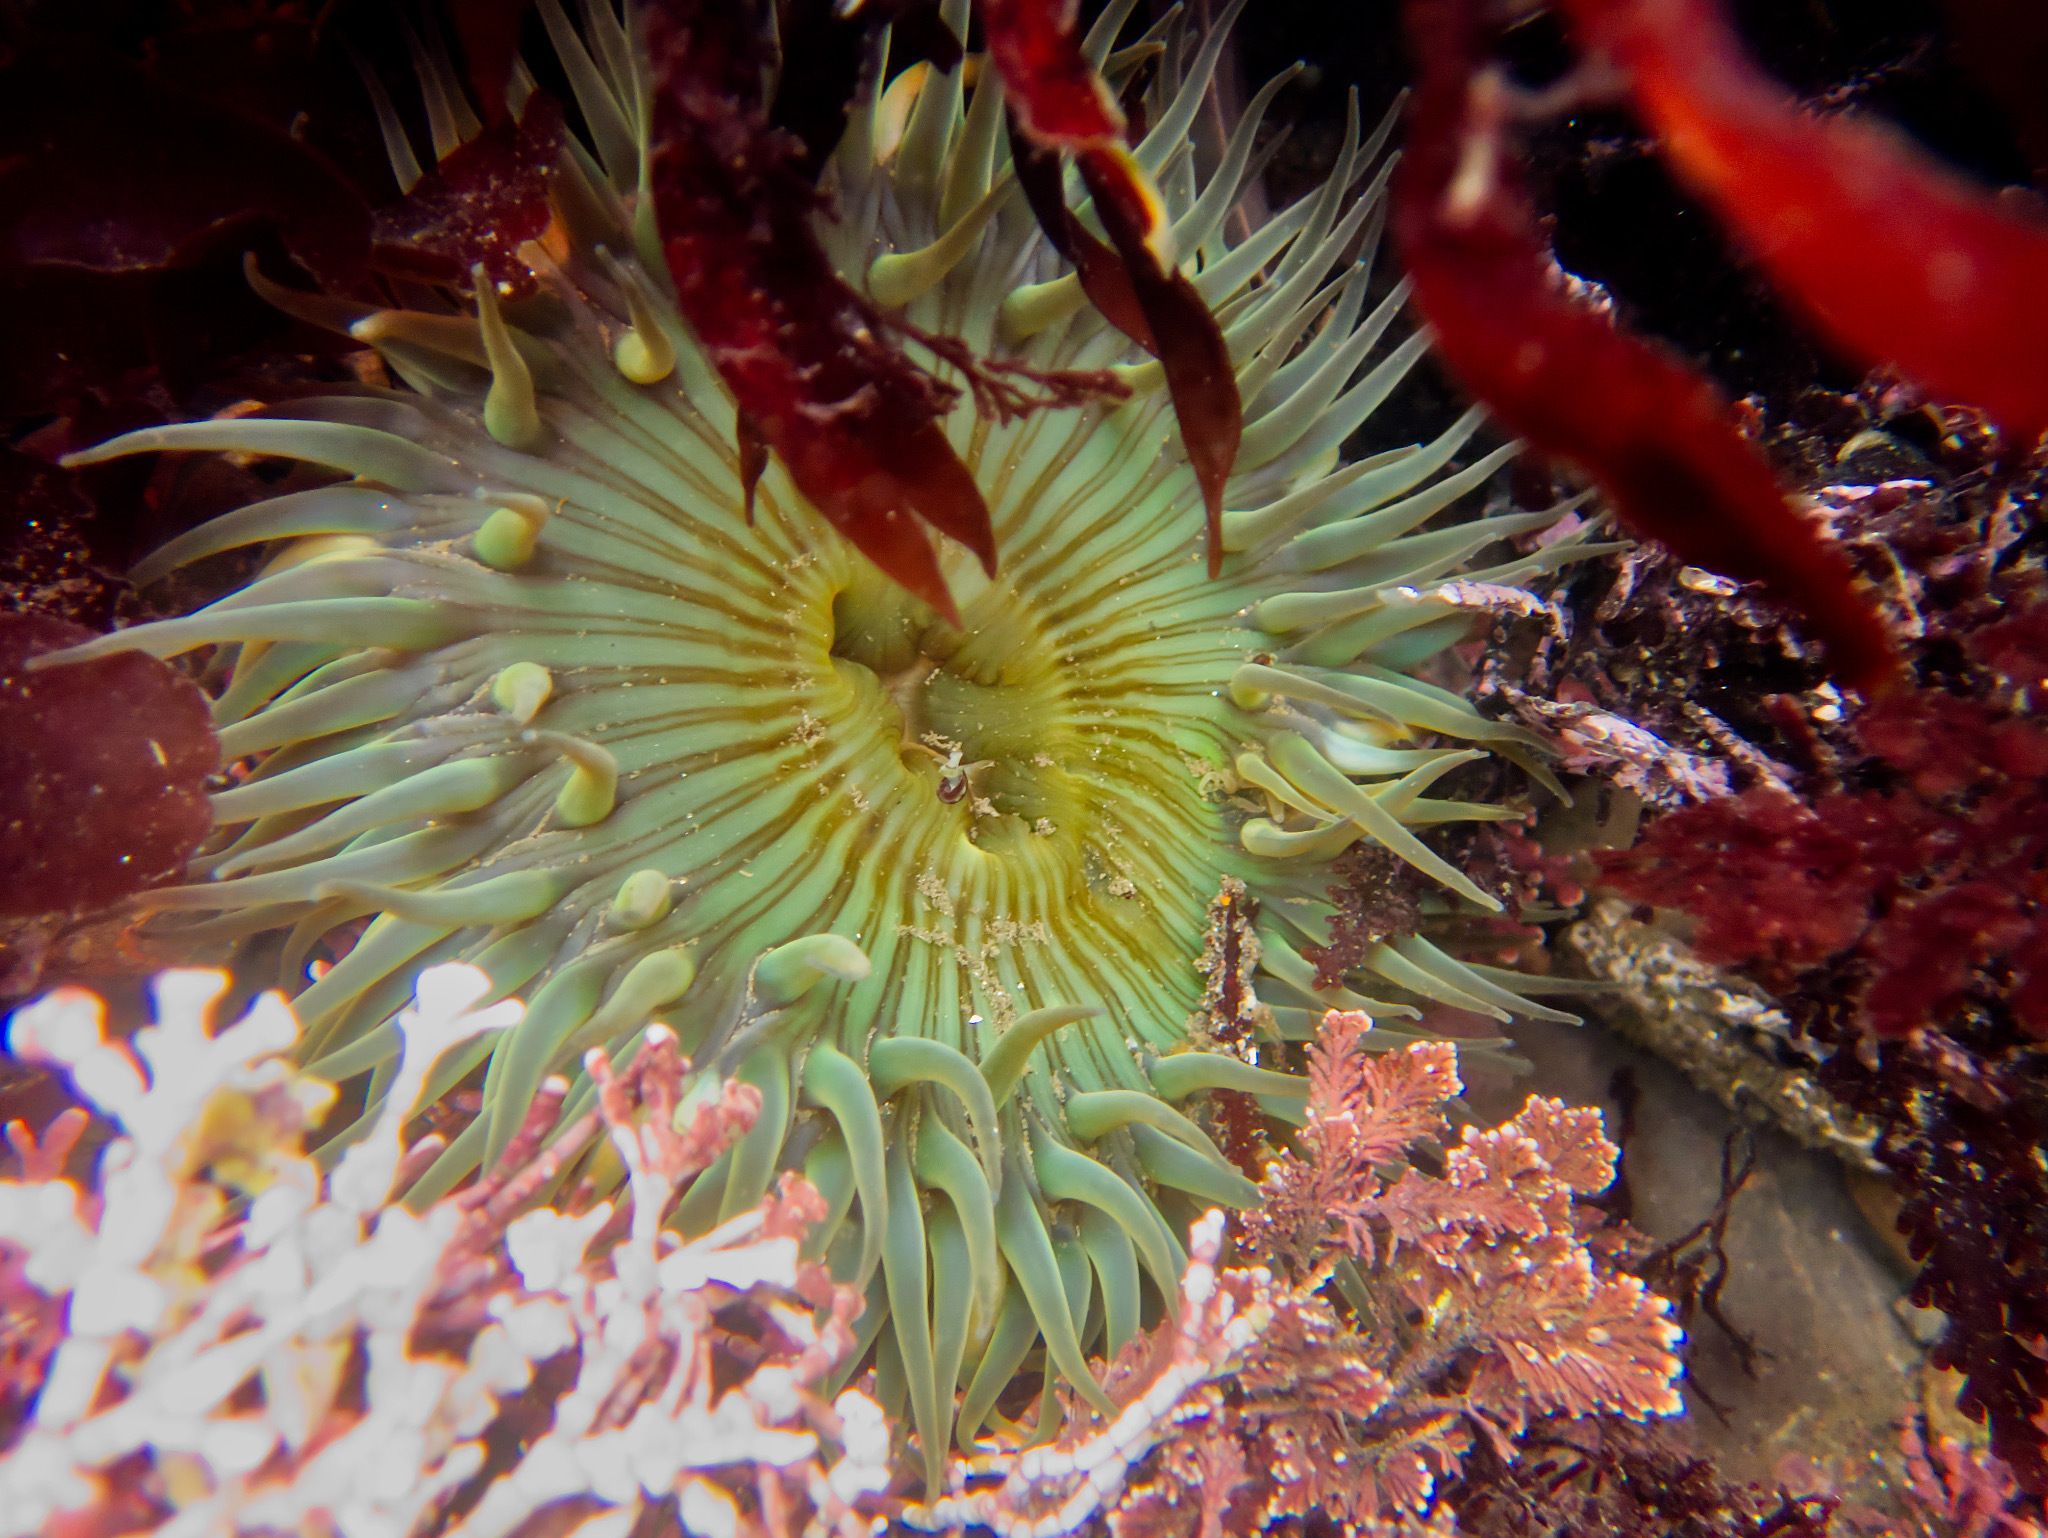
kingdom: Animalia
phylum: Cnidaria
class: Anthozoa
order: Actiniaria
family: Actiniidae
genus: Anthopleura
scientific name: Anthopleura sola
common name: Sun anemone
